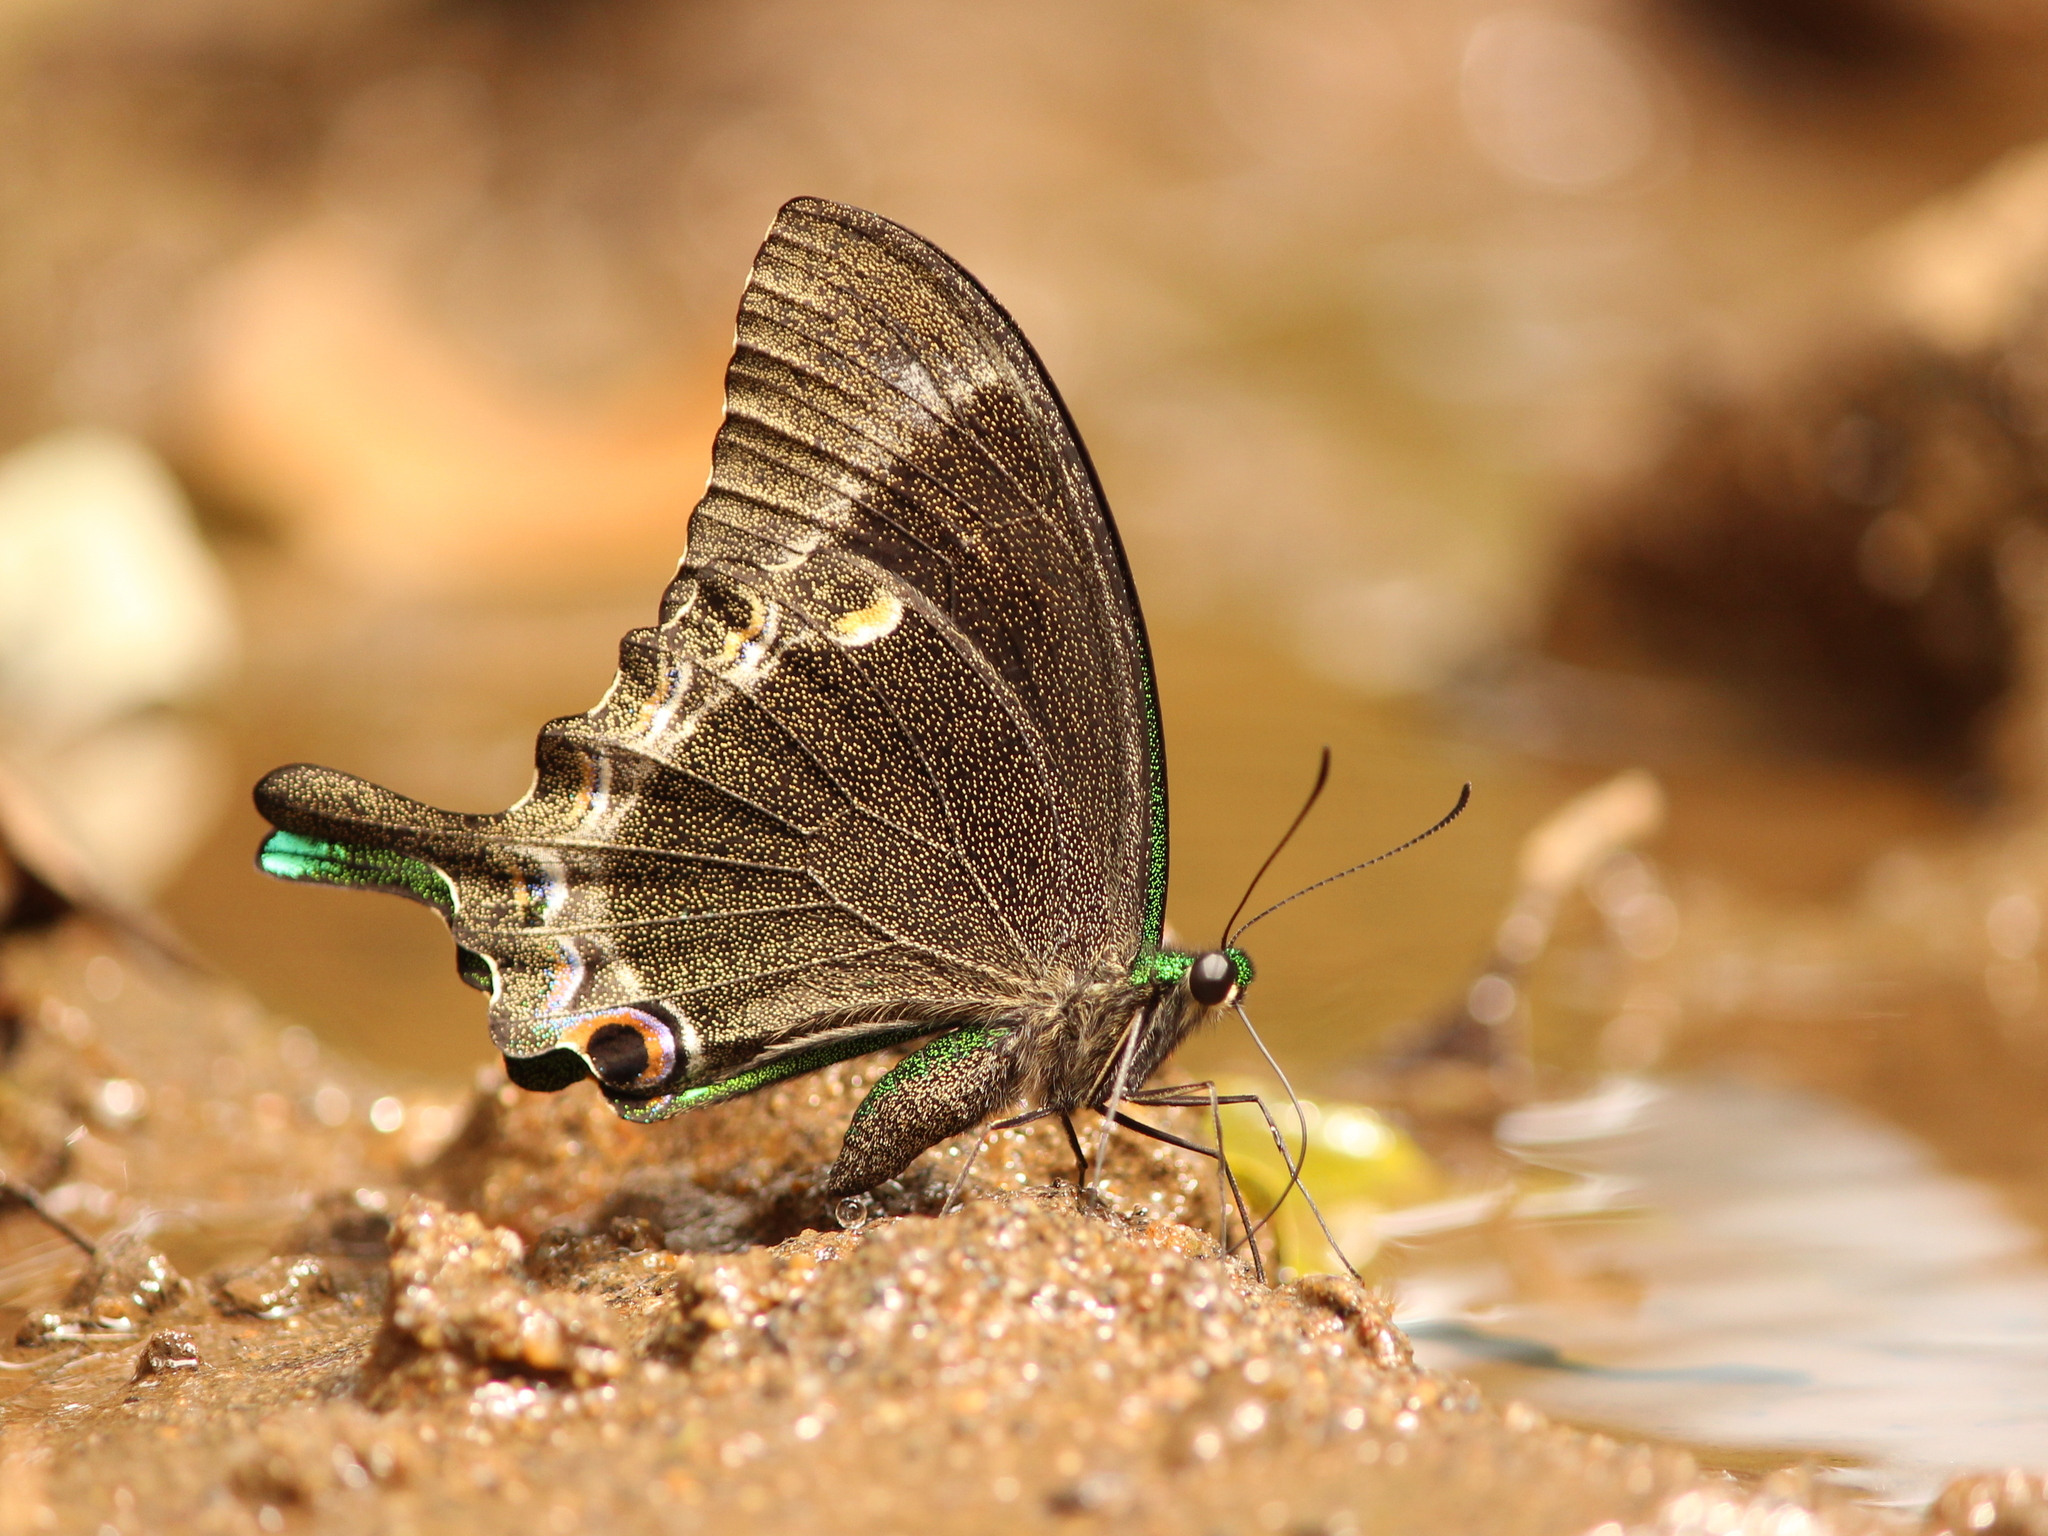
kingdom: Animalia
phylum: Arthropoda
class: Insecta
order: Lepidoptera
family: Papilionidae
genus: Papilio
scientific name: Papilio crino
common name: Common banded peacock
